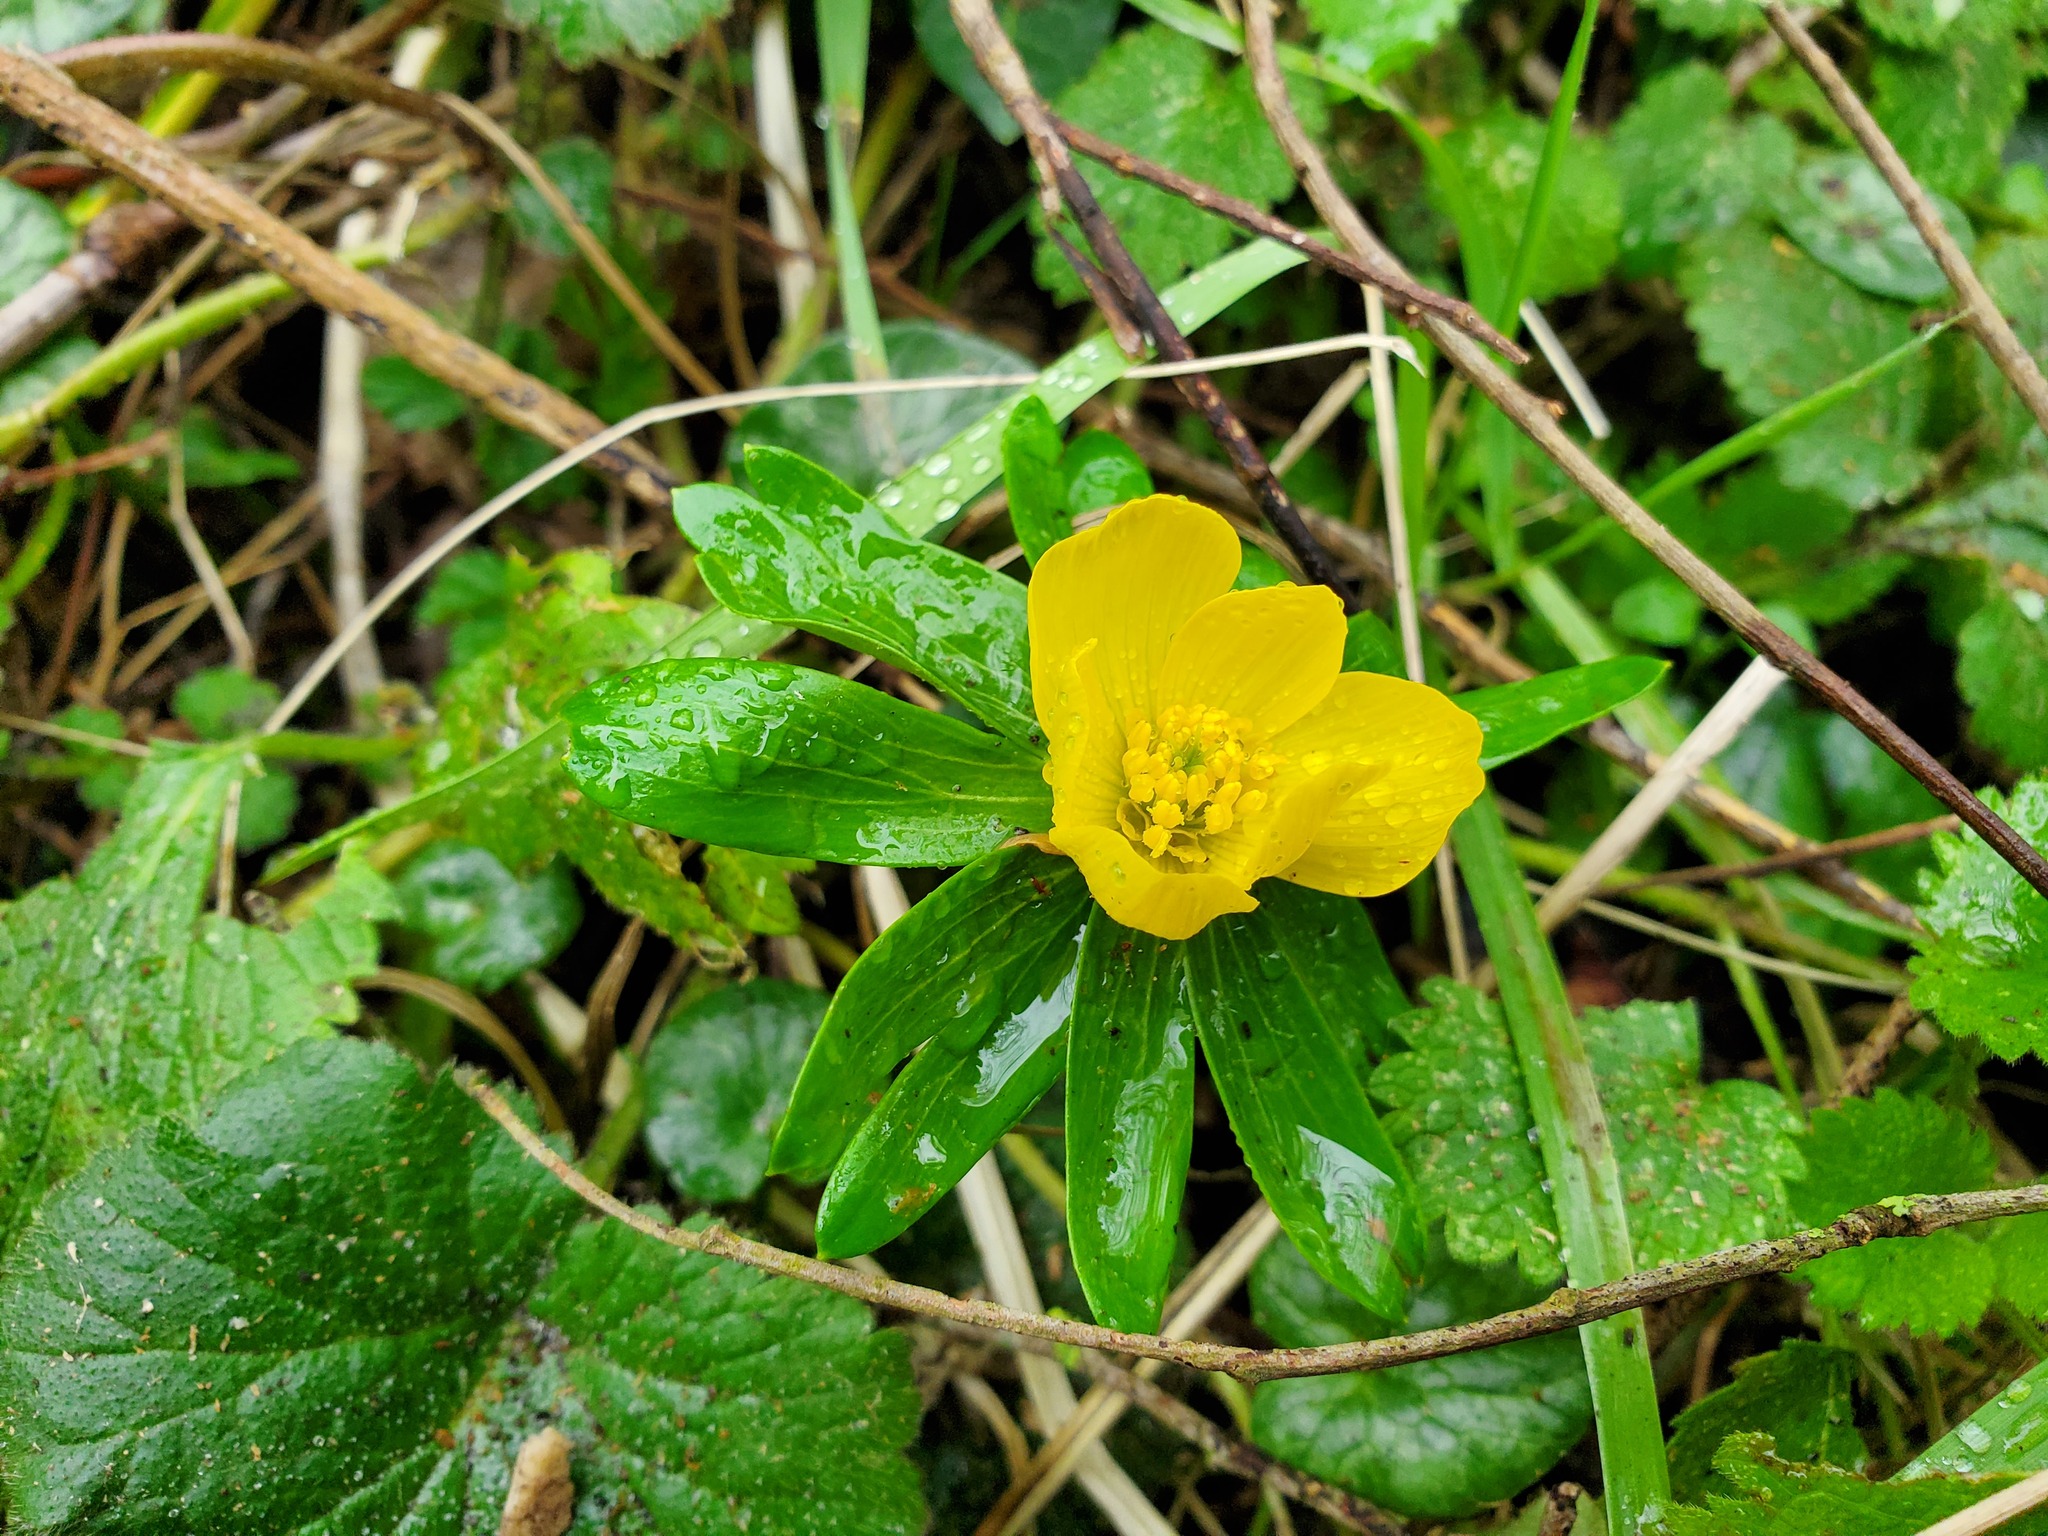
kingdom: Plantae
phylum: Tracheophyta
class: Magnoliopsida
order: Ranunculales
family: Ranunculaceae
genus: Eranthis
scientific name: Eranthis hyemalis
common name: Winter aconite
